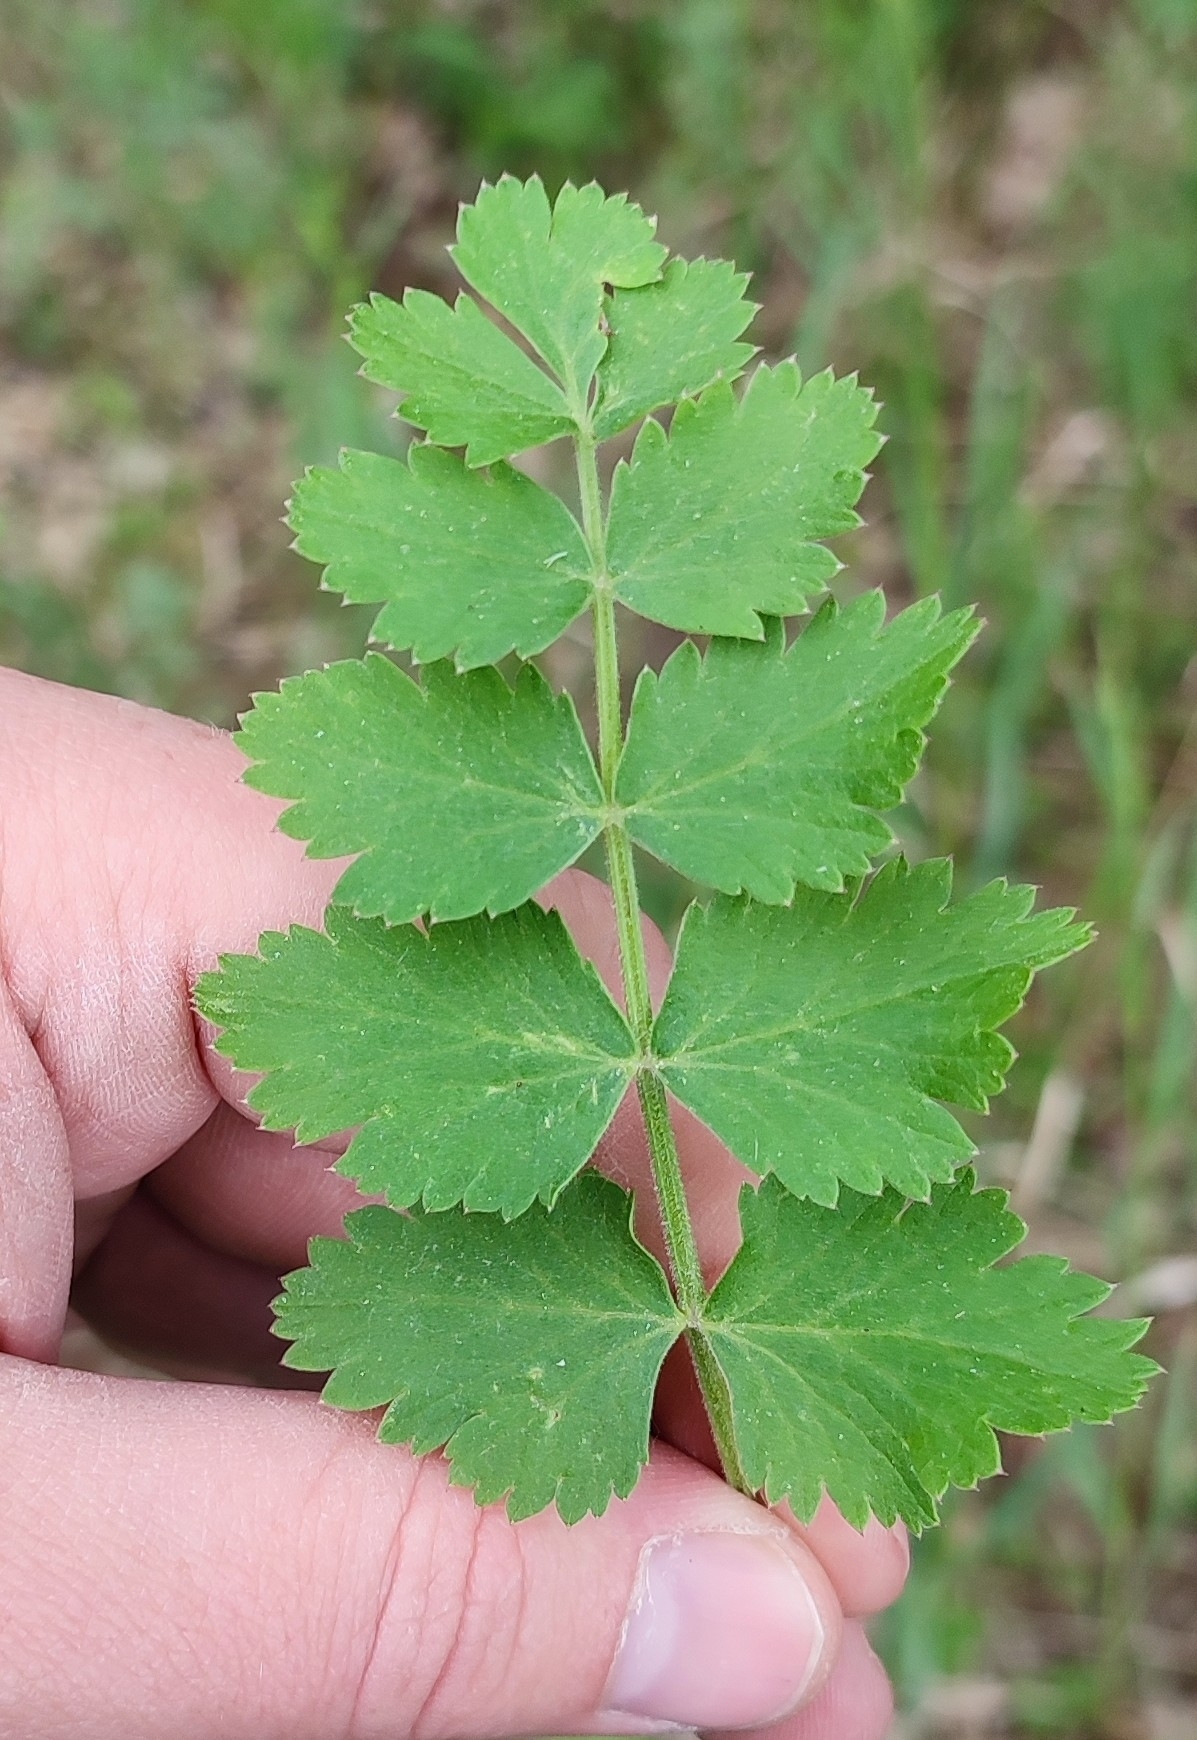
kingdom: Plantae
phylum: Tracheophyta
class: Magnoliopsida
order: Apiales
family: Apiaceae
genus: Pimpinella
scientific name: Pimpinella saxifraga
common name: Burnet-saxifrage
